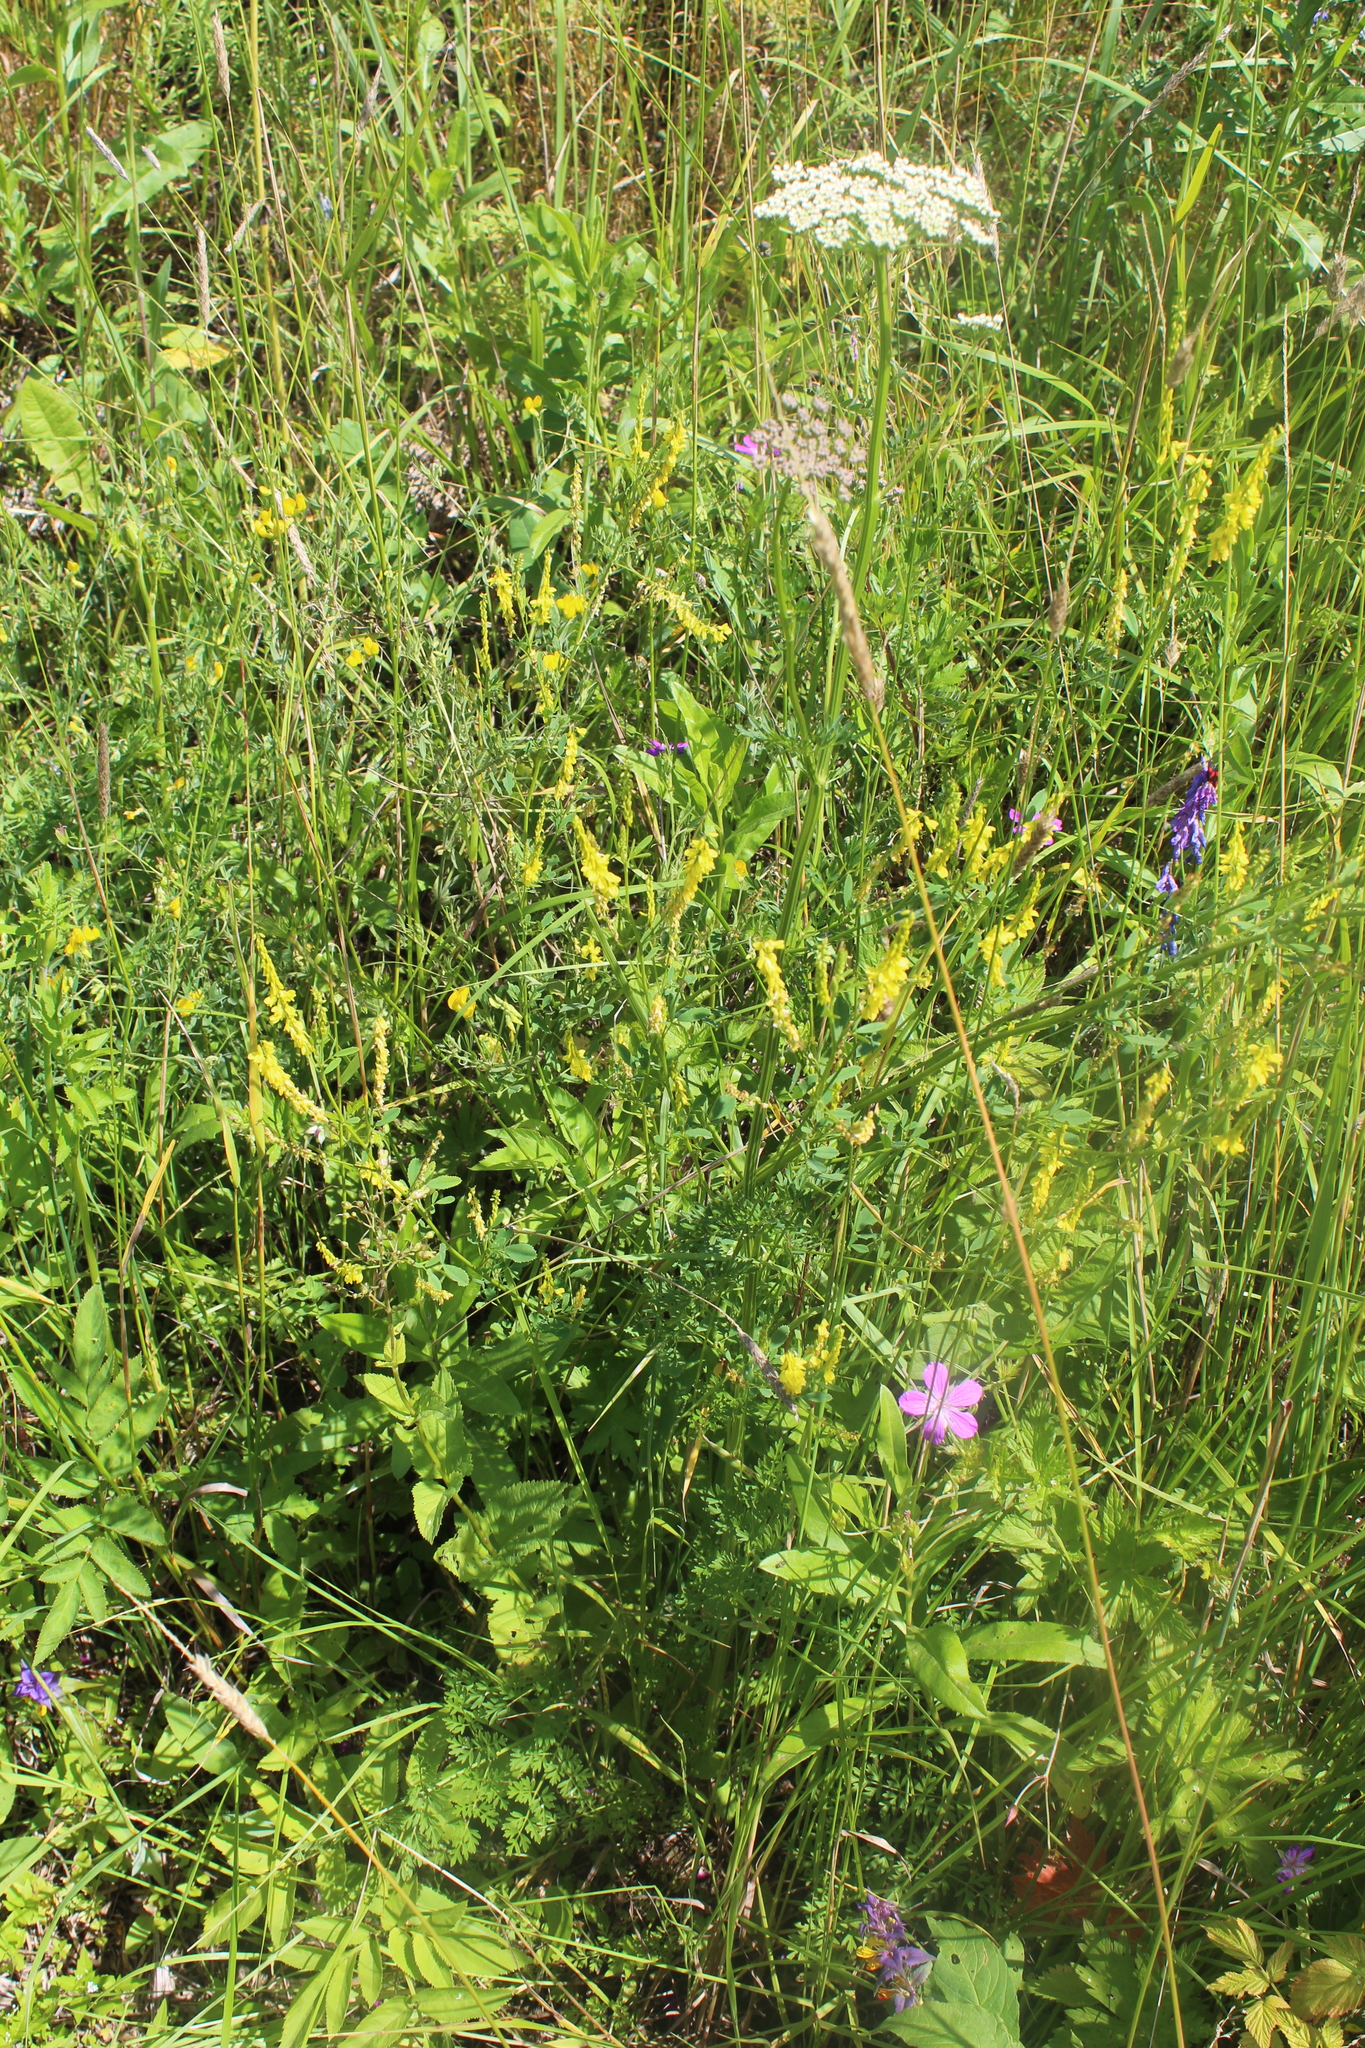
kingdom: Plantae
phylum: Tracheophyta
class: Magnoliopsida
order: Fabales
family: Fabaceae
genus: Melilotus
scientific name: Melilotus officinalis
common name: Sweetclover
